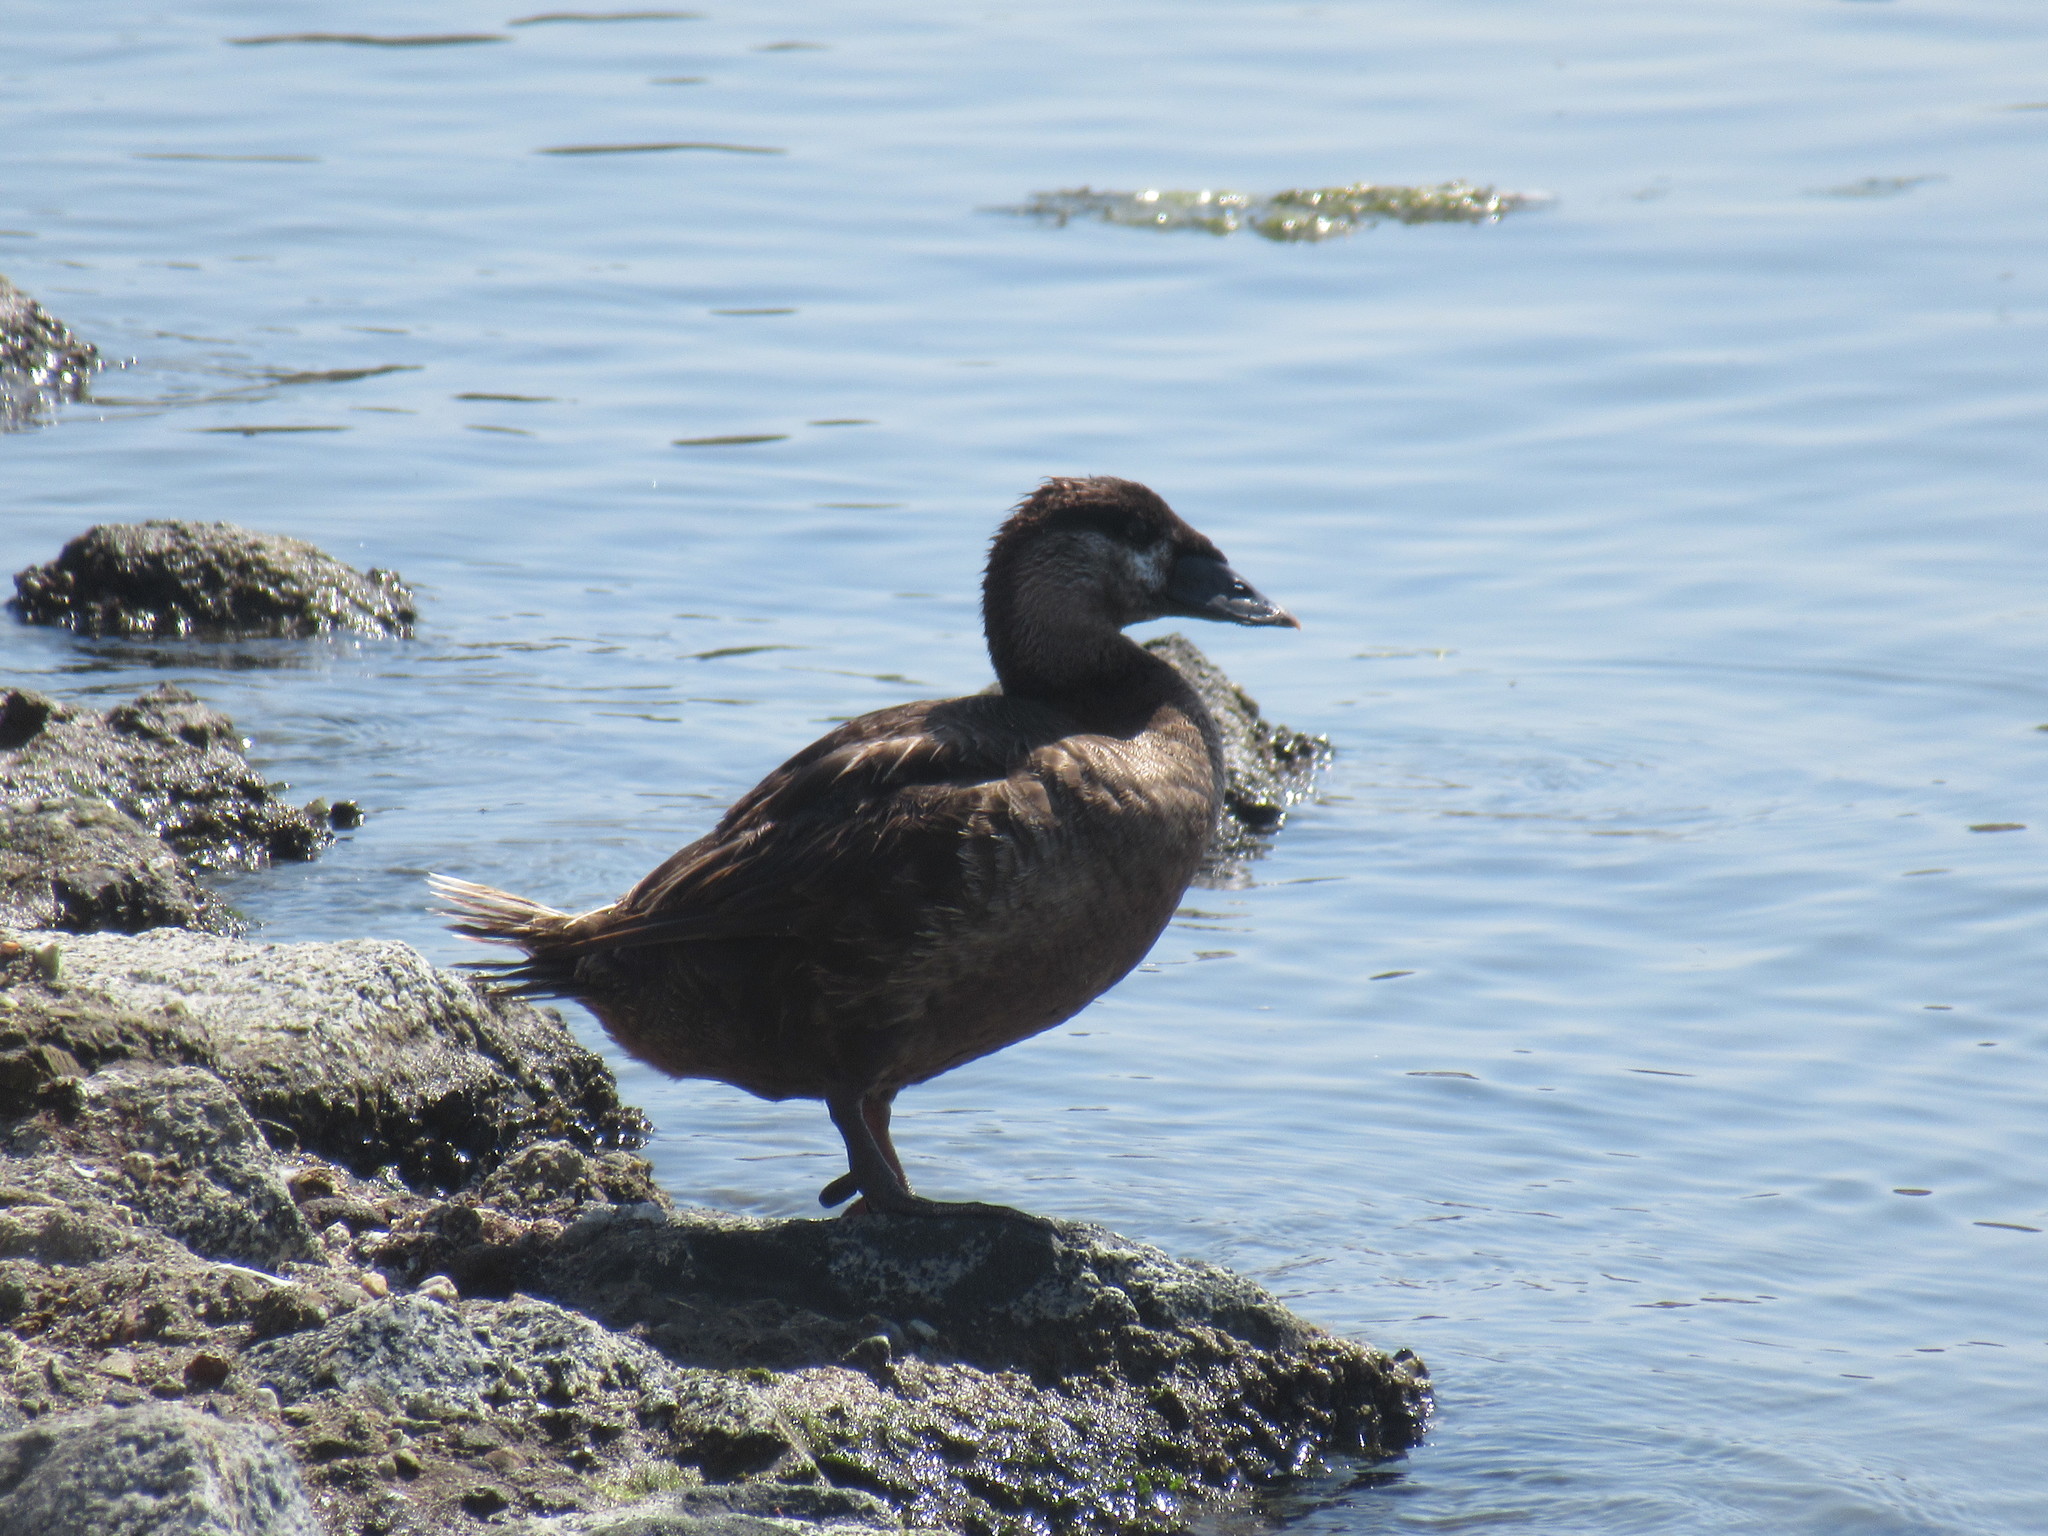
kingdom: Animalia
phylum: Chordata
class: Aves
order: Anseriformes
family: Anatidae
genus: Melanitta
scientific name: Melanitta perspicillata
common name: Surf scoter
